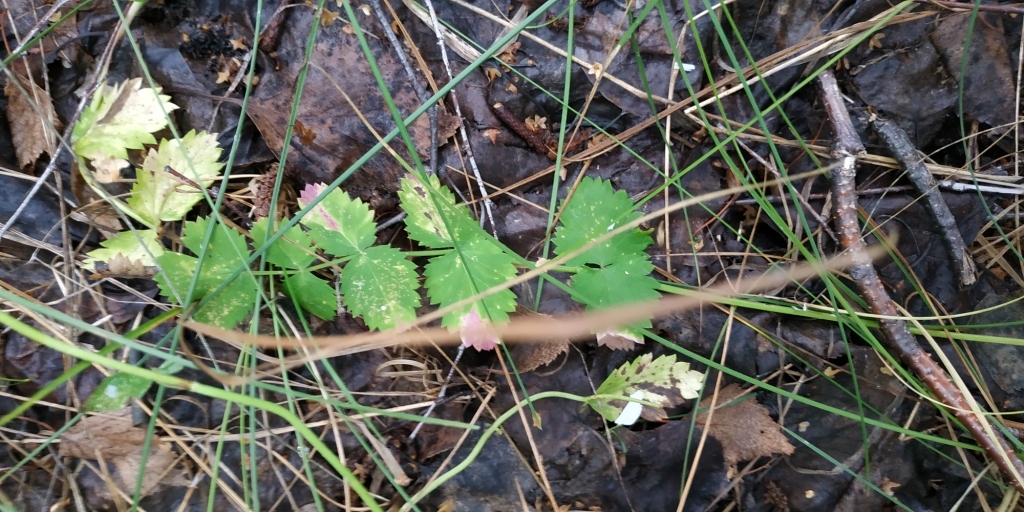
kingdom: Plantae
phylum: Tracheophyta
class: Magnoliopsida
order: Apiales
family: Apiaceae
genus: Pimpinella
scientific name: Pimpinella saxifraga
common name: Burnet-saxifrage
